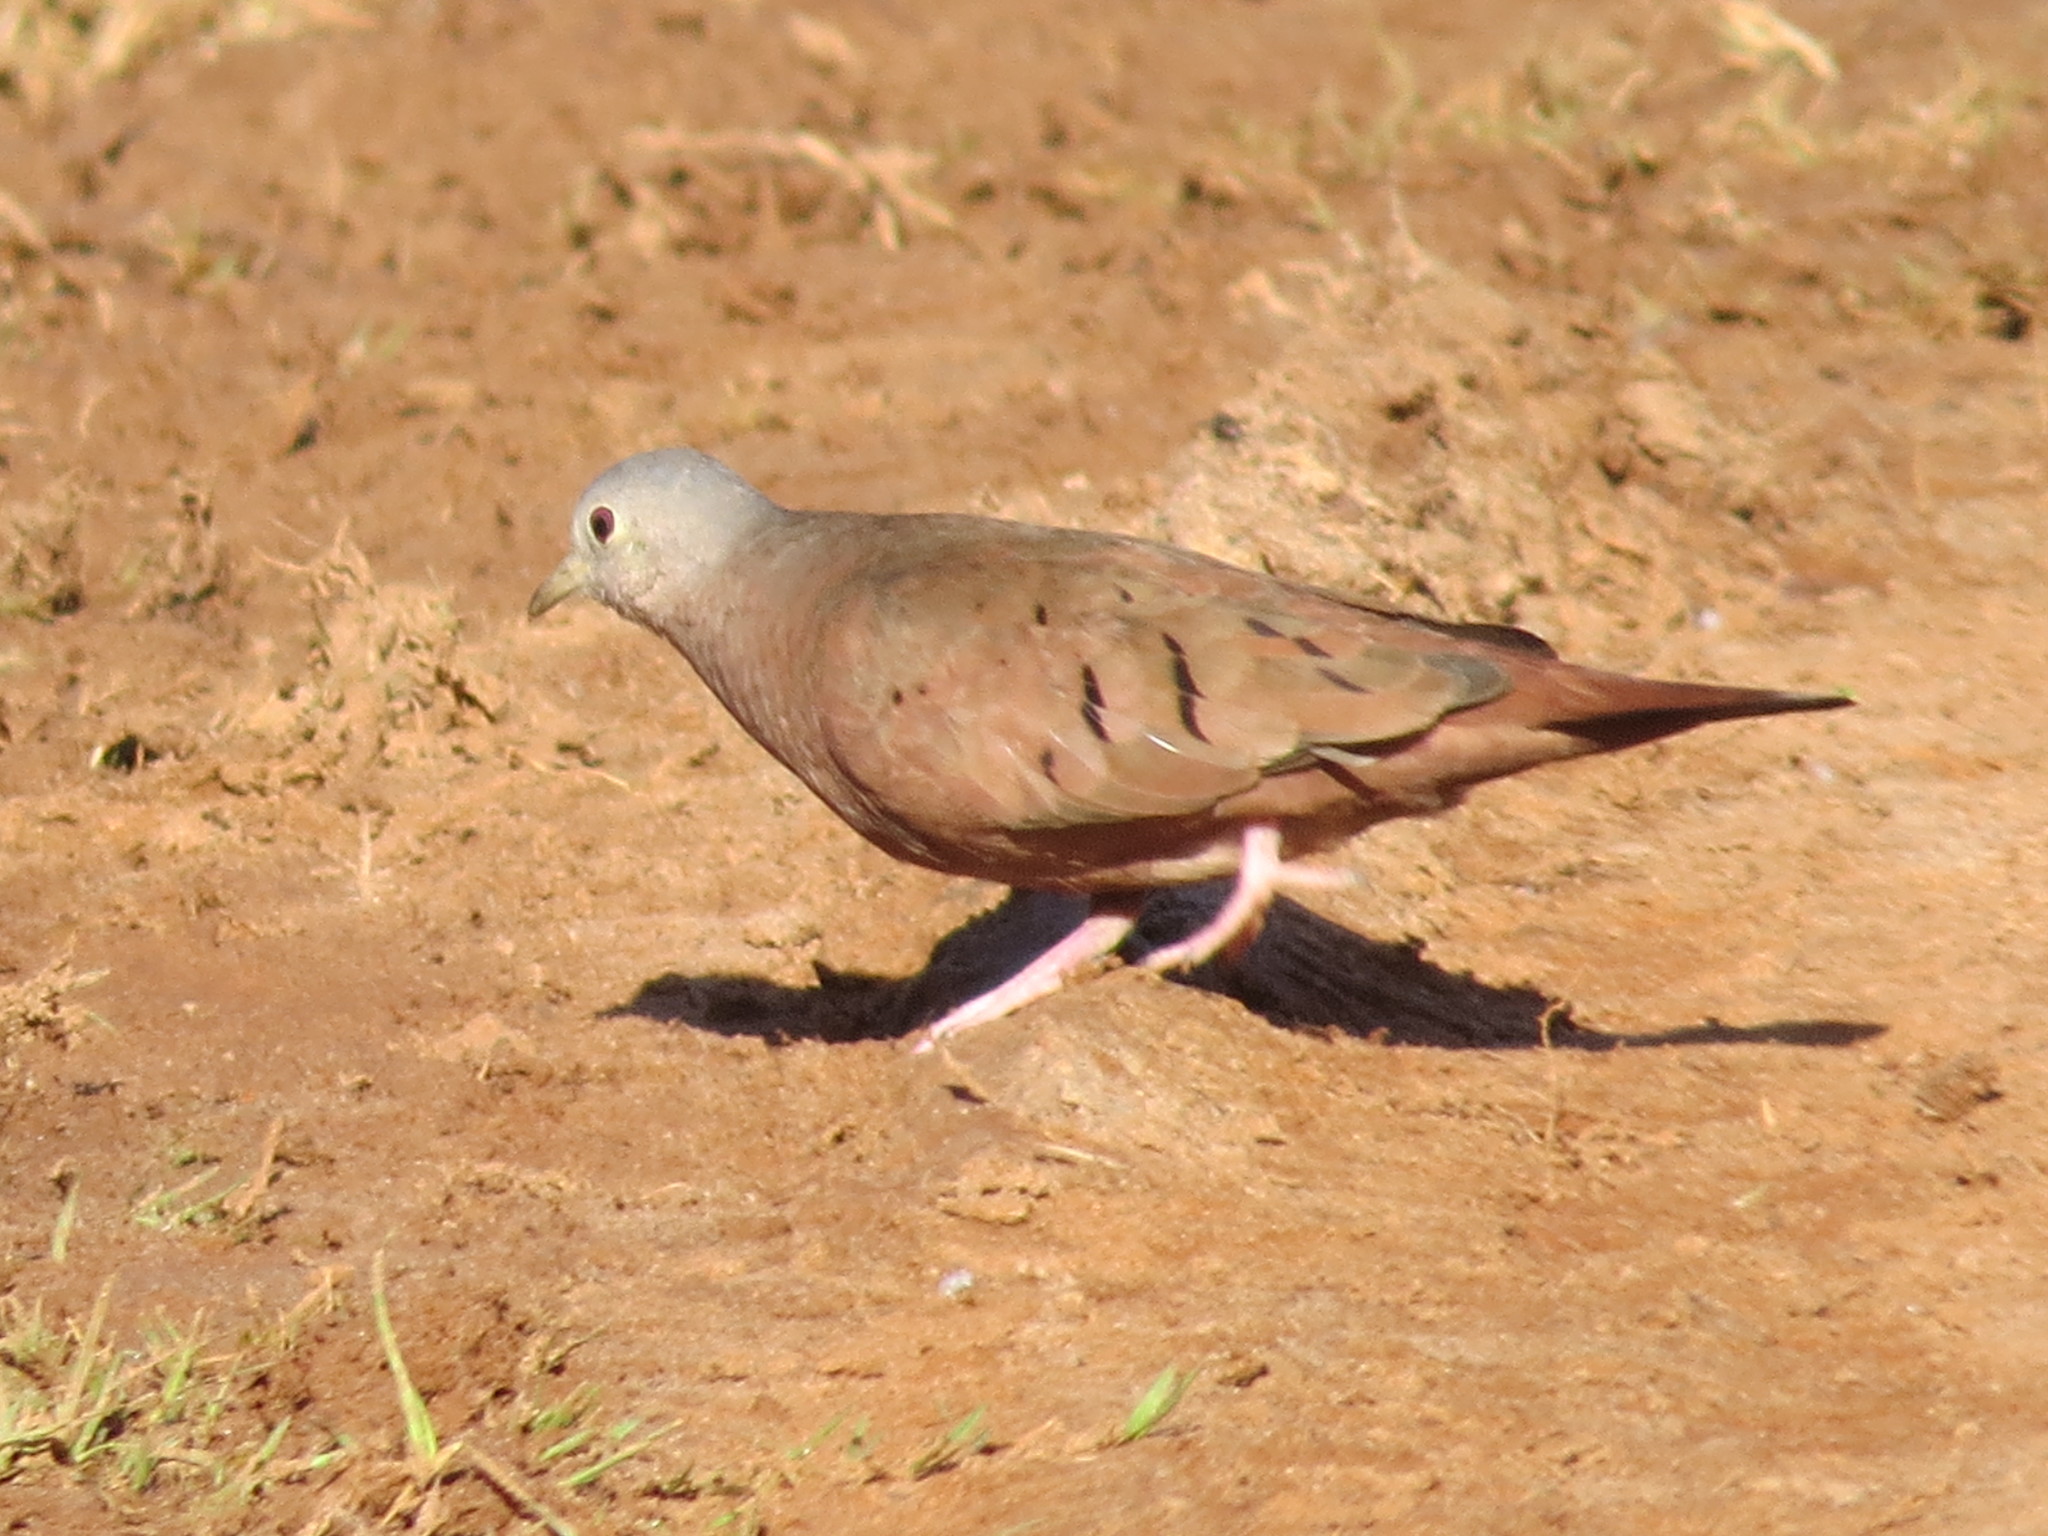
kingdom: Animalia
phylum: Chordata
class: Aves
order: Columbiformes
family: Columbidae
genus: Columbina
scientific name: Columbina talpacoti
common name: Ruddy ground dove
